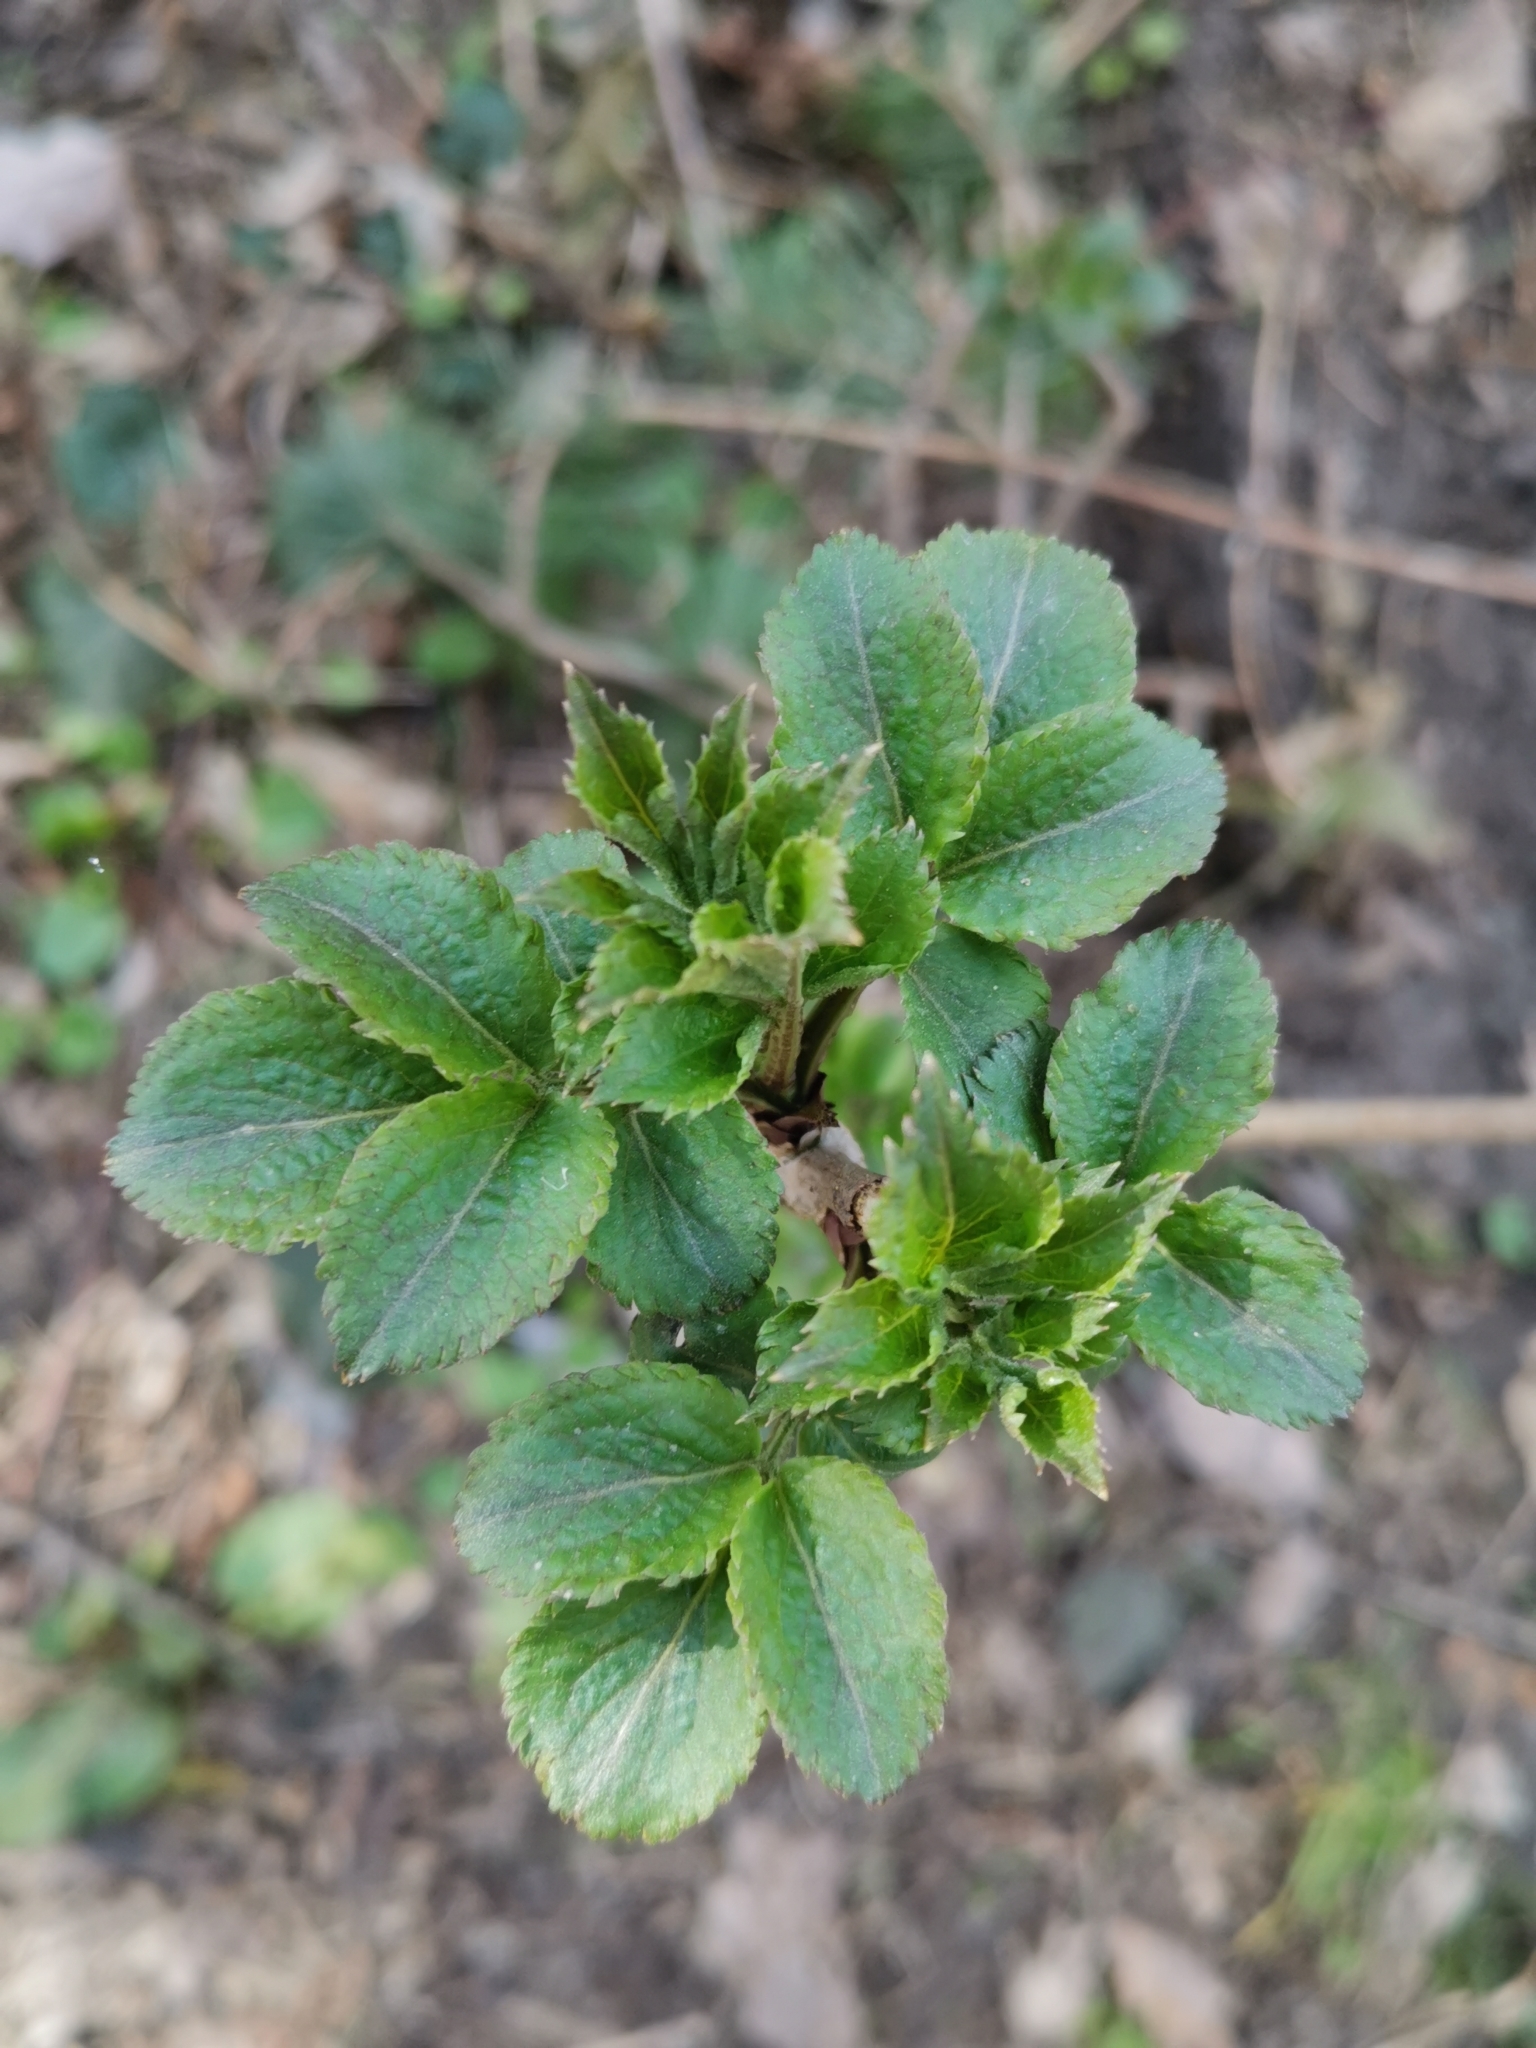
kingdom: Plantae
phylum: Tracheophyta
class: Magnoliopsida
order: Dipsacales
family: Viburnaceae
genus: Sambucus
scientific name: Sambucus nigra
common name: Elder
